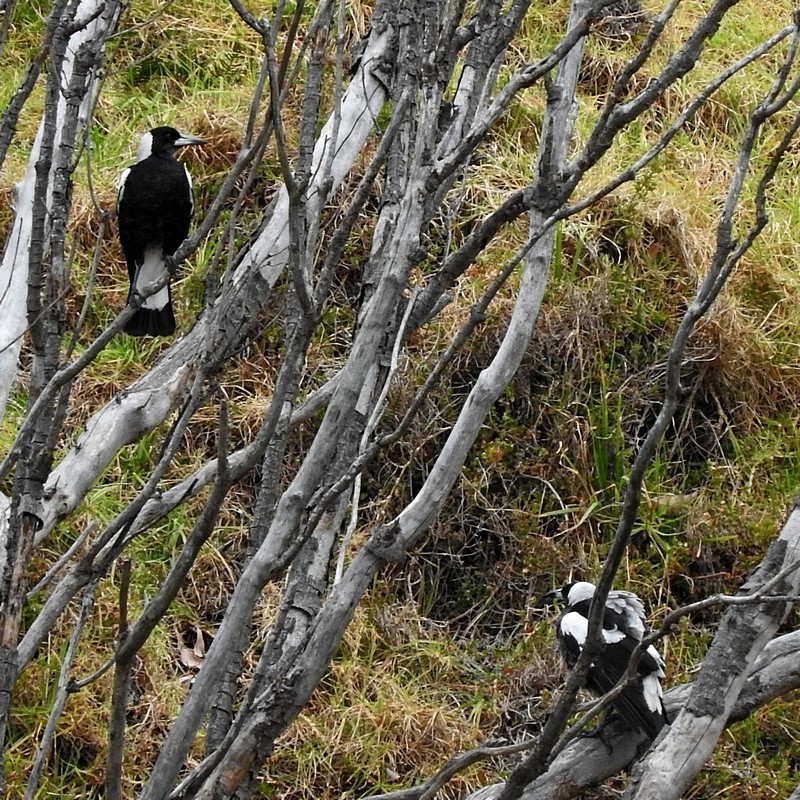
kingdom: Animalia
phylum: Chordata
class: Aves
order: Passeriformes
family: Cracticidae
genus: Gymnorhina
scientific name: Gymnorhina tibicen
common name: Australian magpie
